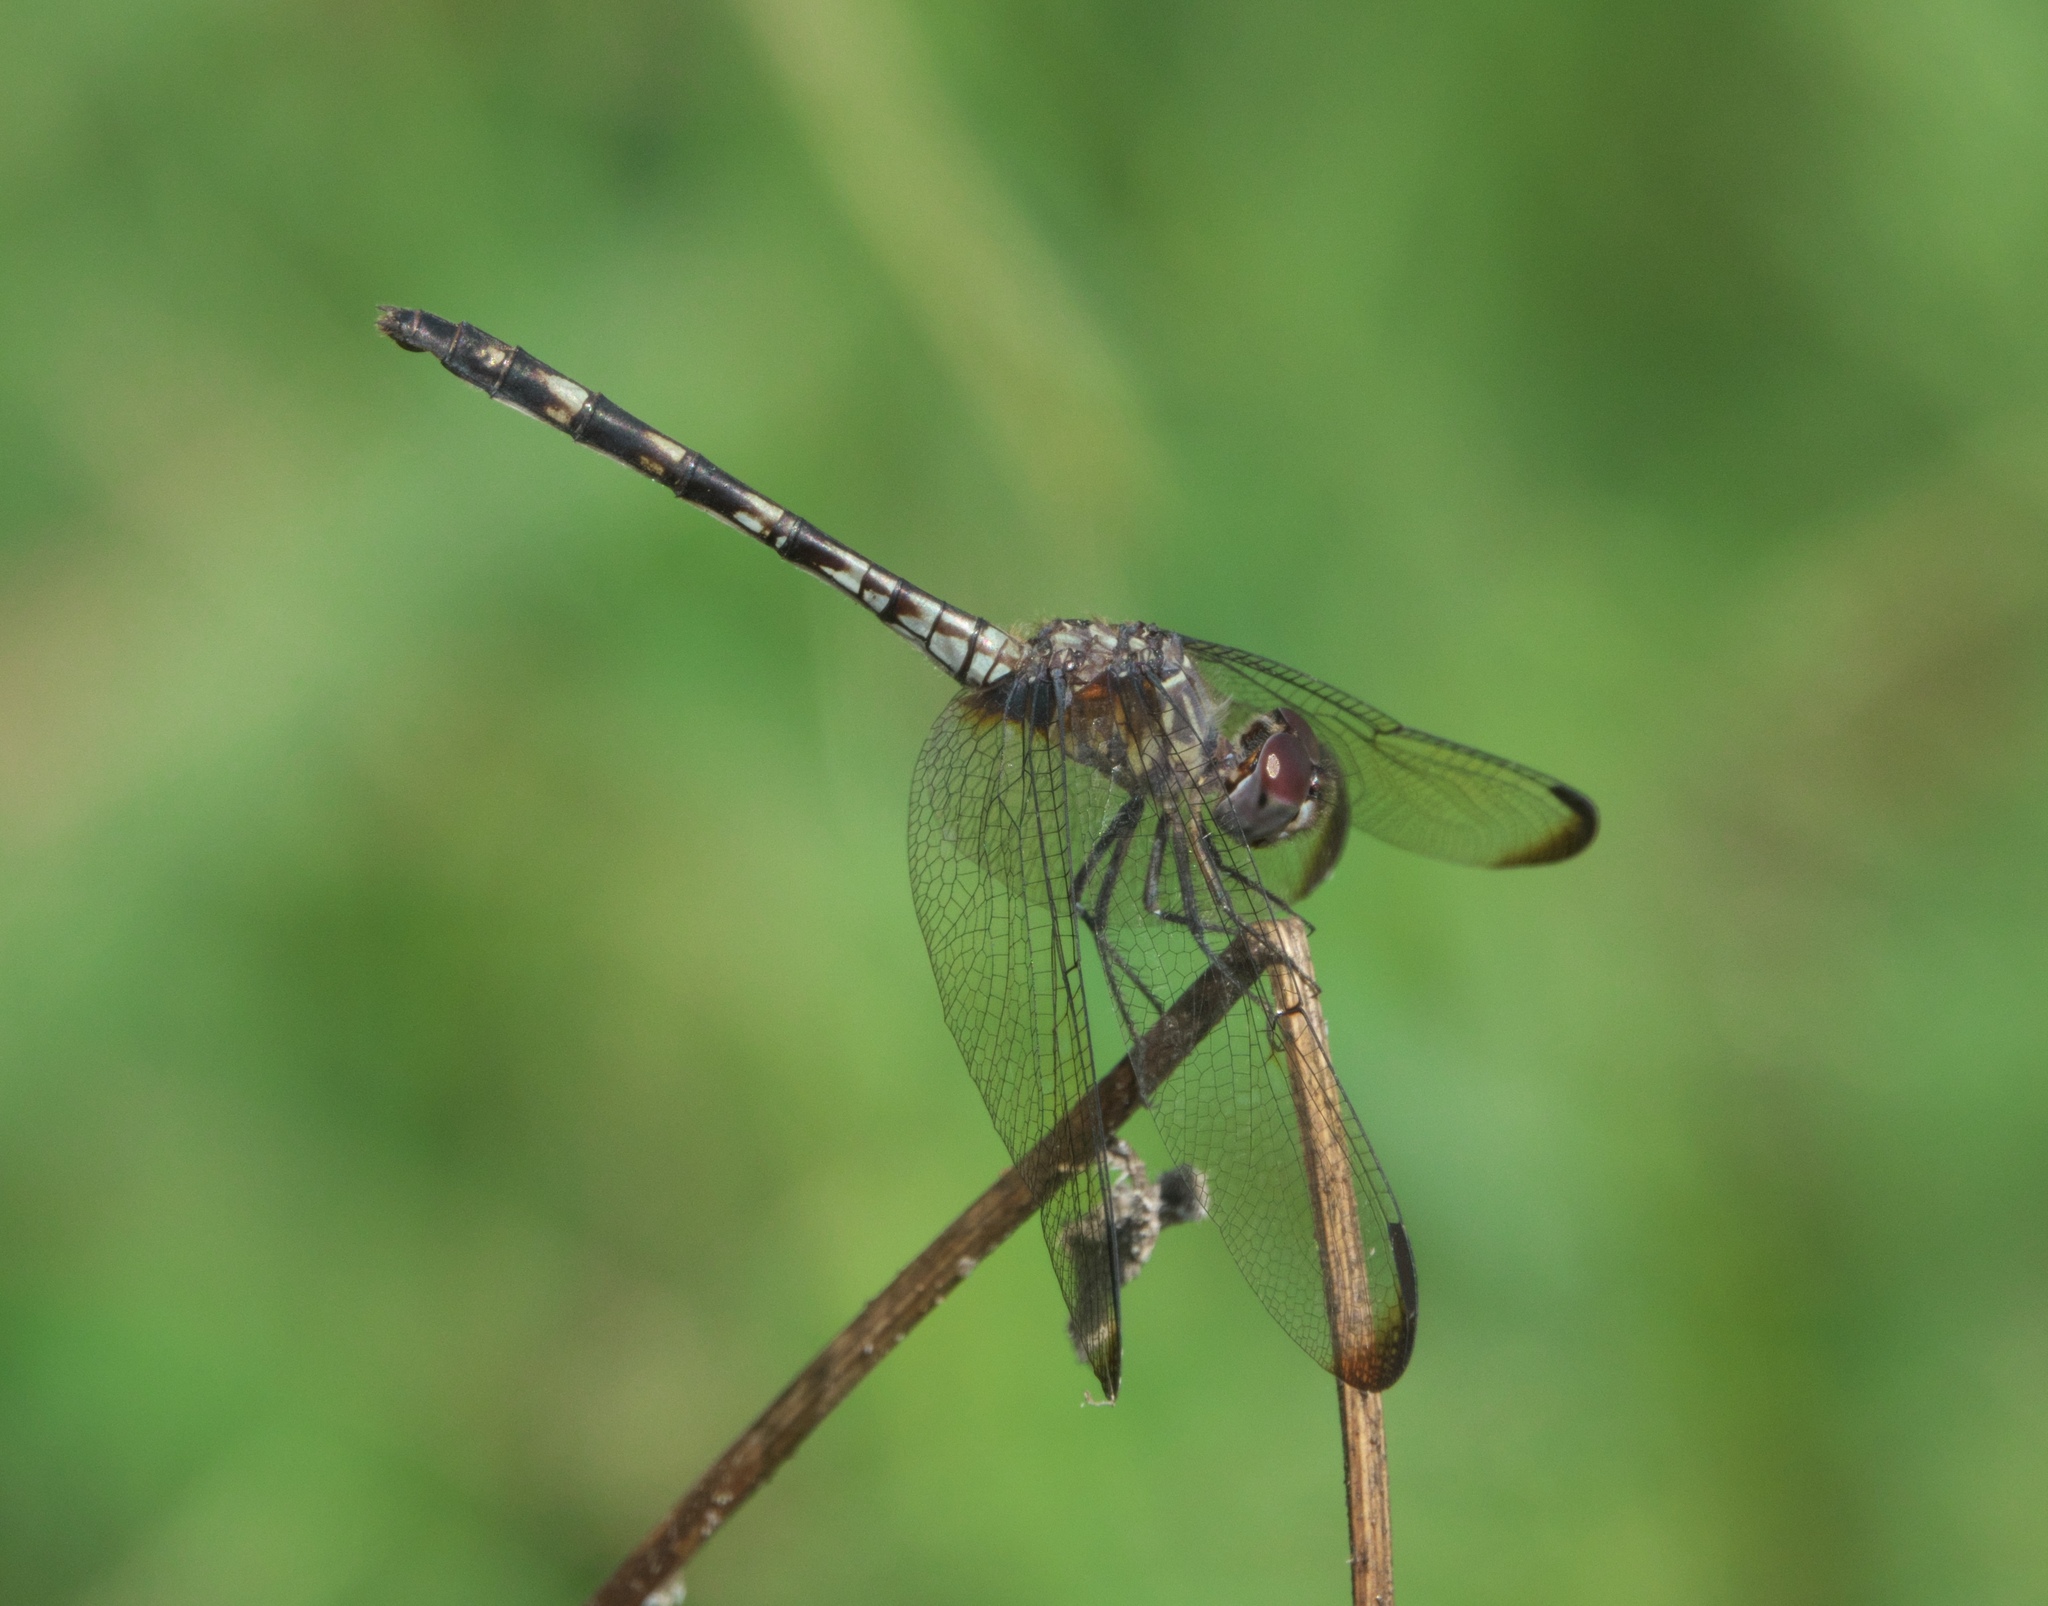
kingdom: Animalia
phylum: Arthropoda
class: Insecta
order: Odonata
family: Libellulidae
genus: Dythemis
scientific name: Dythemis nigrescens
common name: Black setwing
